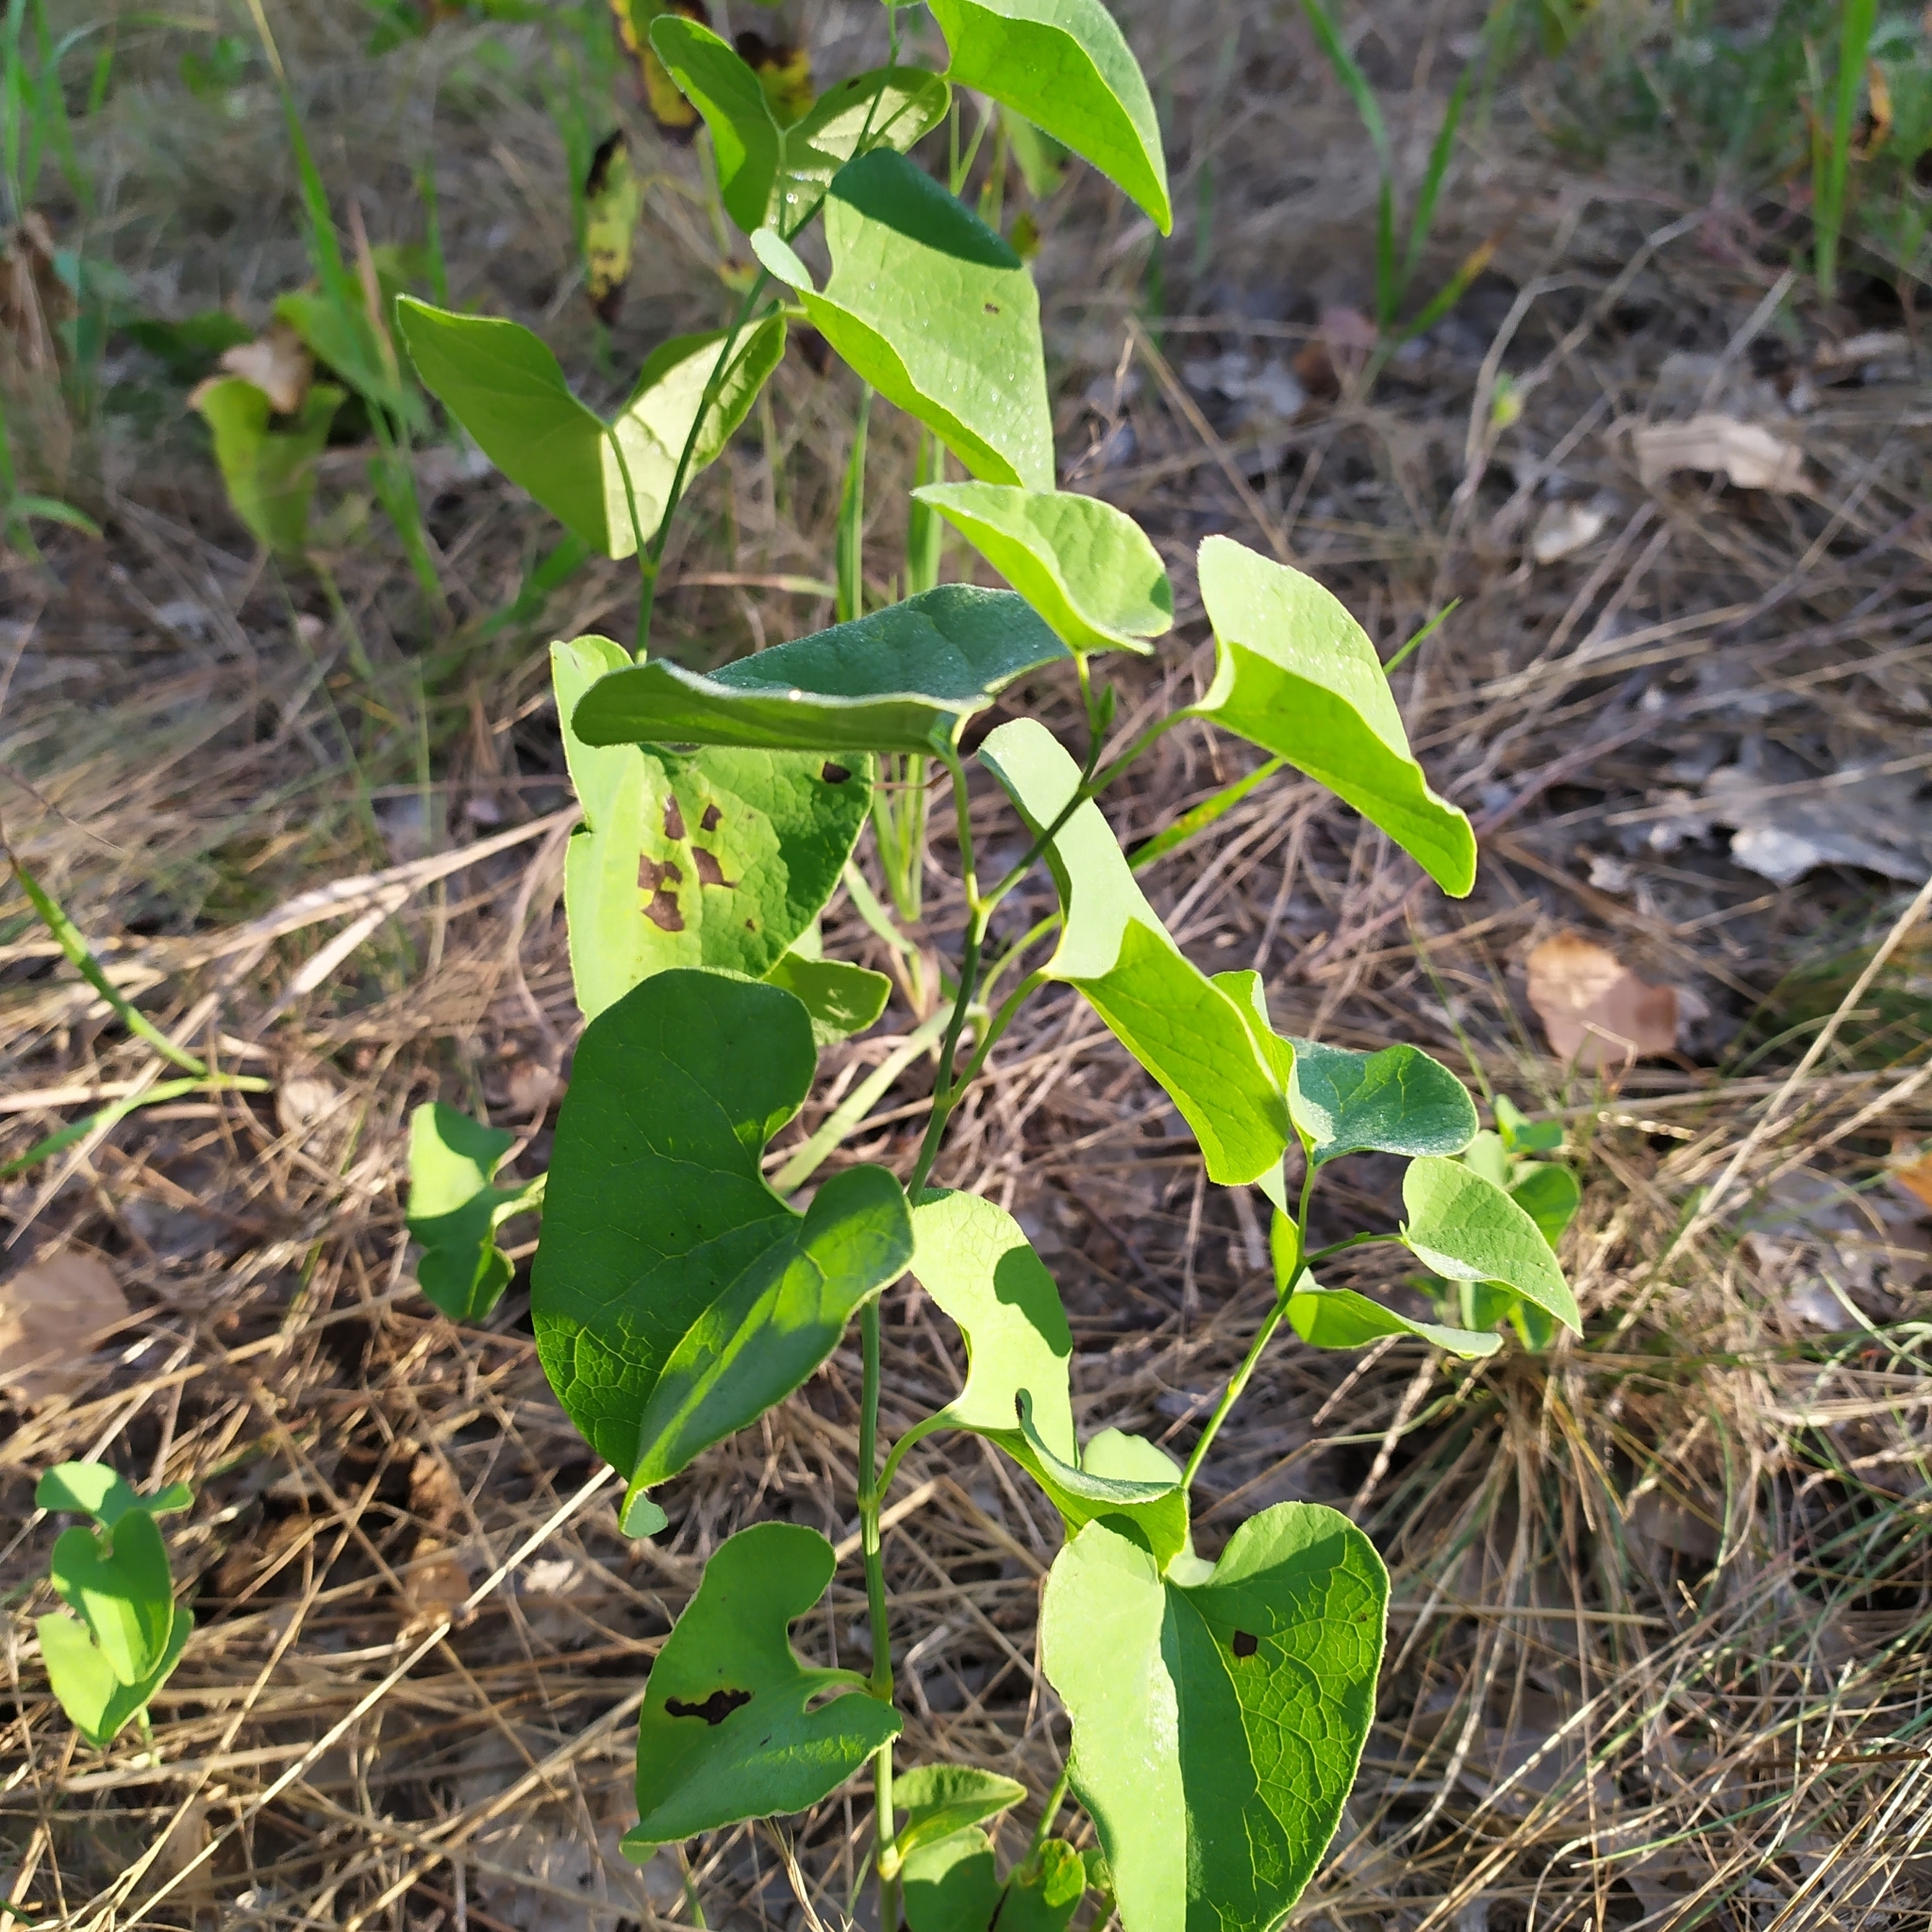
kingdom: Plantae
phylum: Tracheophyta
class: Magnoliopsida
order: Piperales
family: Aristolochiaceae
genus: Aristolochia
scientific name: Aristolochia clematitis
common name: Birthwort
